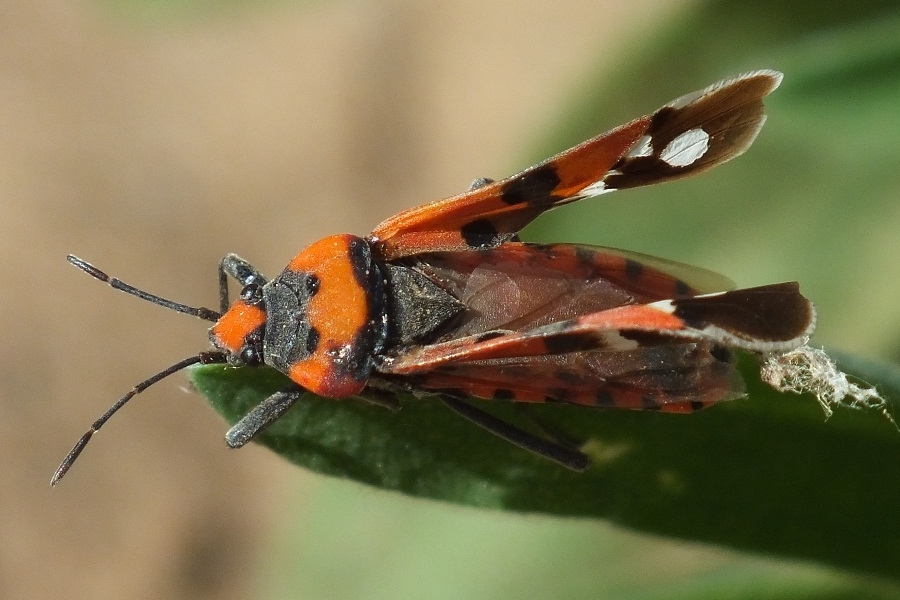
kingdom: Animalia
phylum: Arthropoda
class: Insecta
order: Hemiptera
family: Lygaeidae
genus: Lygaeus
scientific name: Lygaeus simulans
